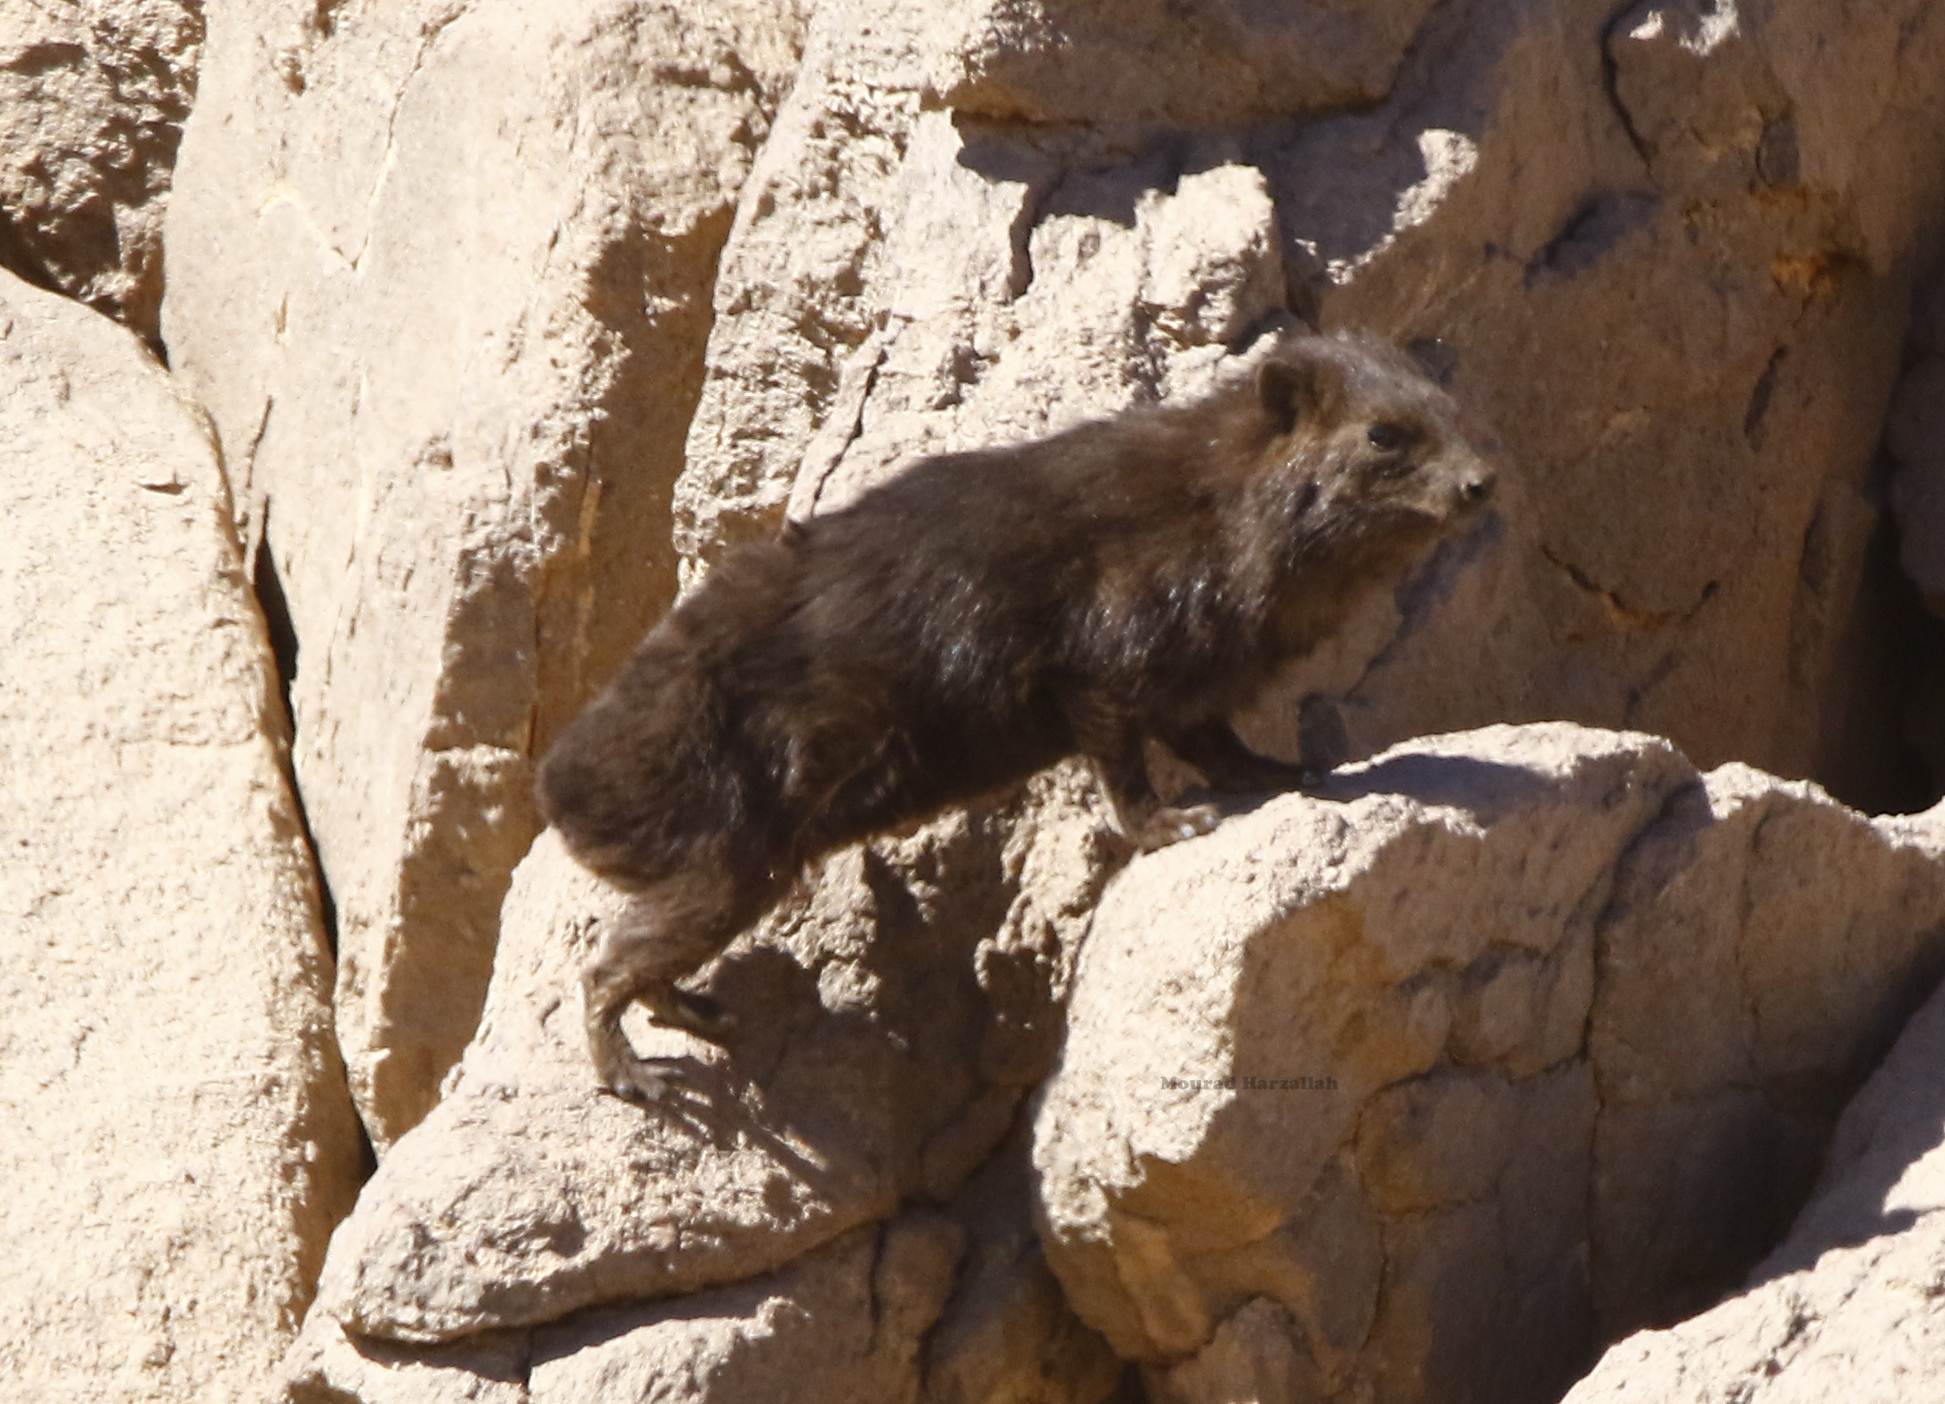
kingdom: Animalia
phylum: Chordata
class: Mammalia
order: Hyracoidea
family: Procaviidae
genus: Procavia
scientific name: Procavia capensis
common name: Rock hyrax
